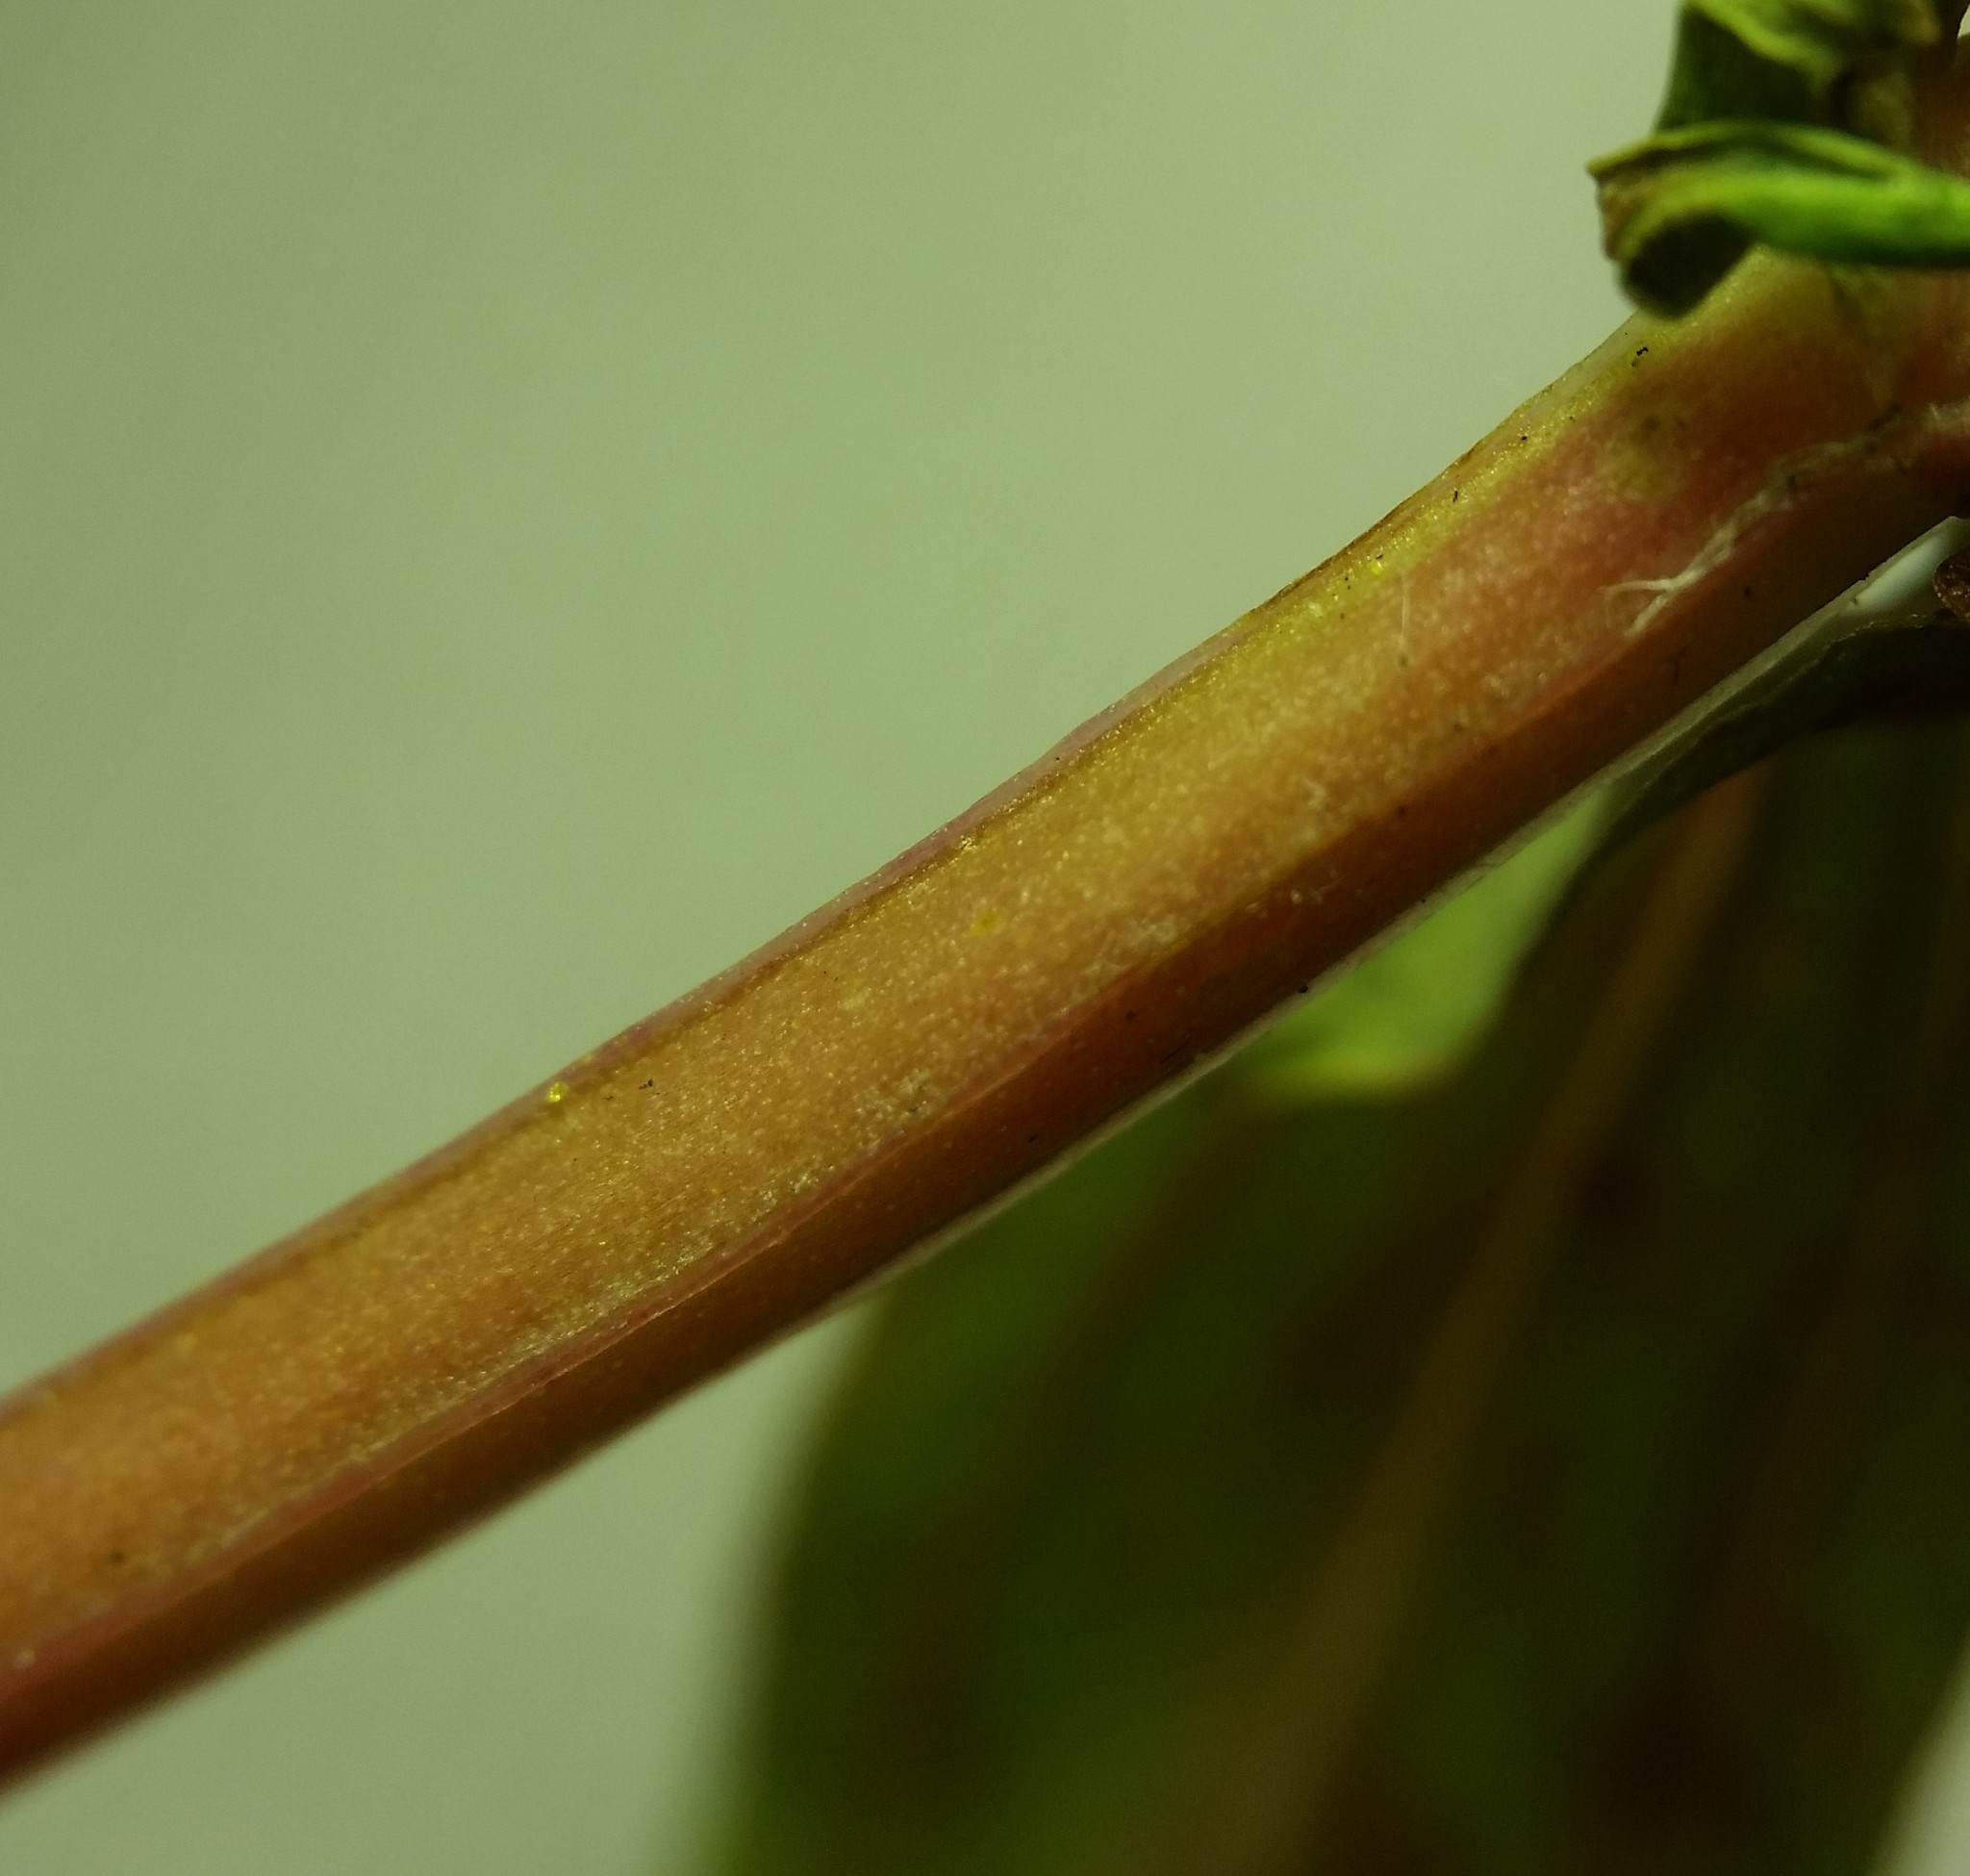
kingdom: Plantae
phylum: Tracheophyta
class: Magnoliopsida
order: Malpighiales
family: Hypericaceae
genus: Hypericum
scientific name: Hypericum majus
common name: Greater canadian st. john's-wort
